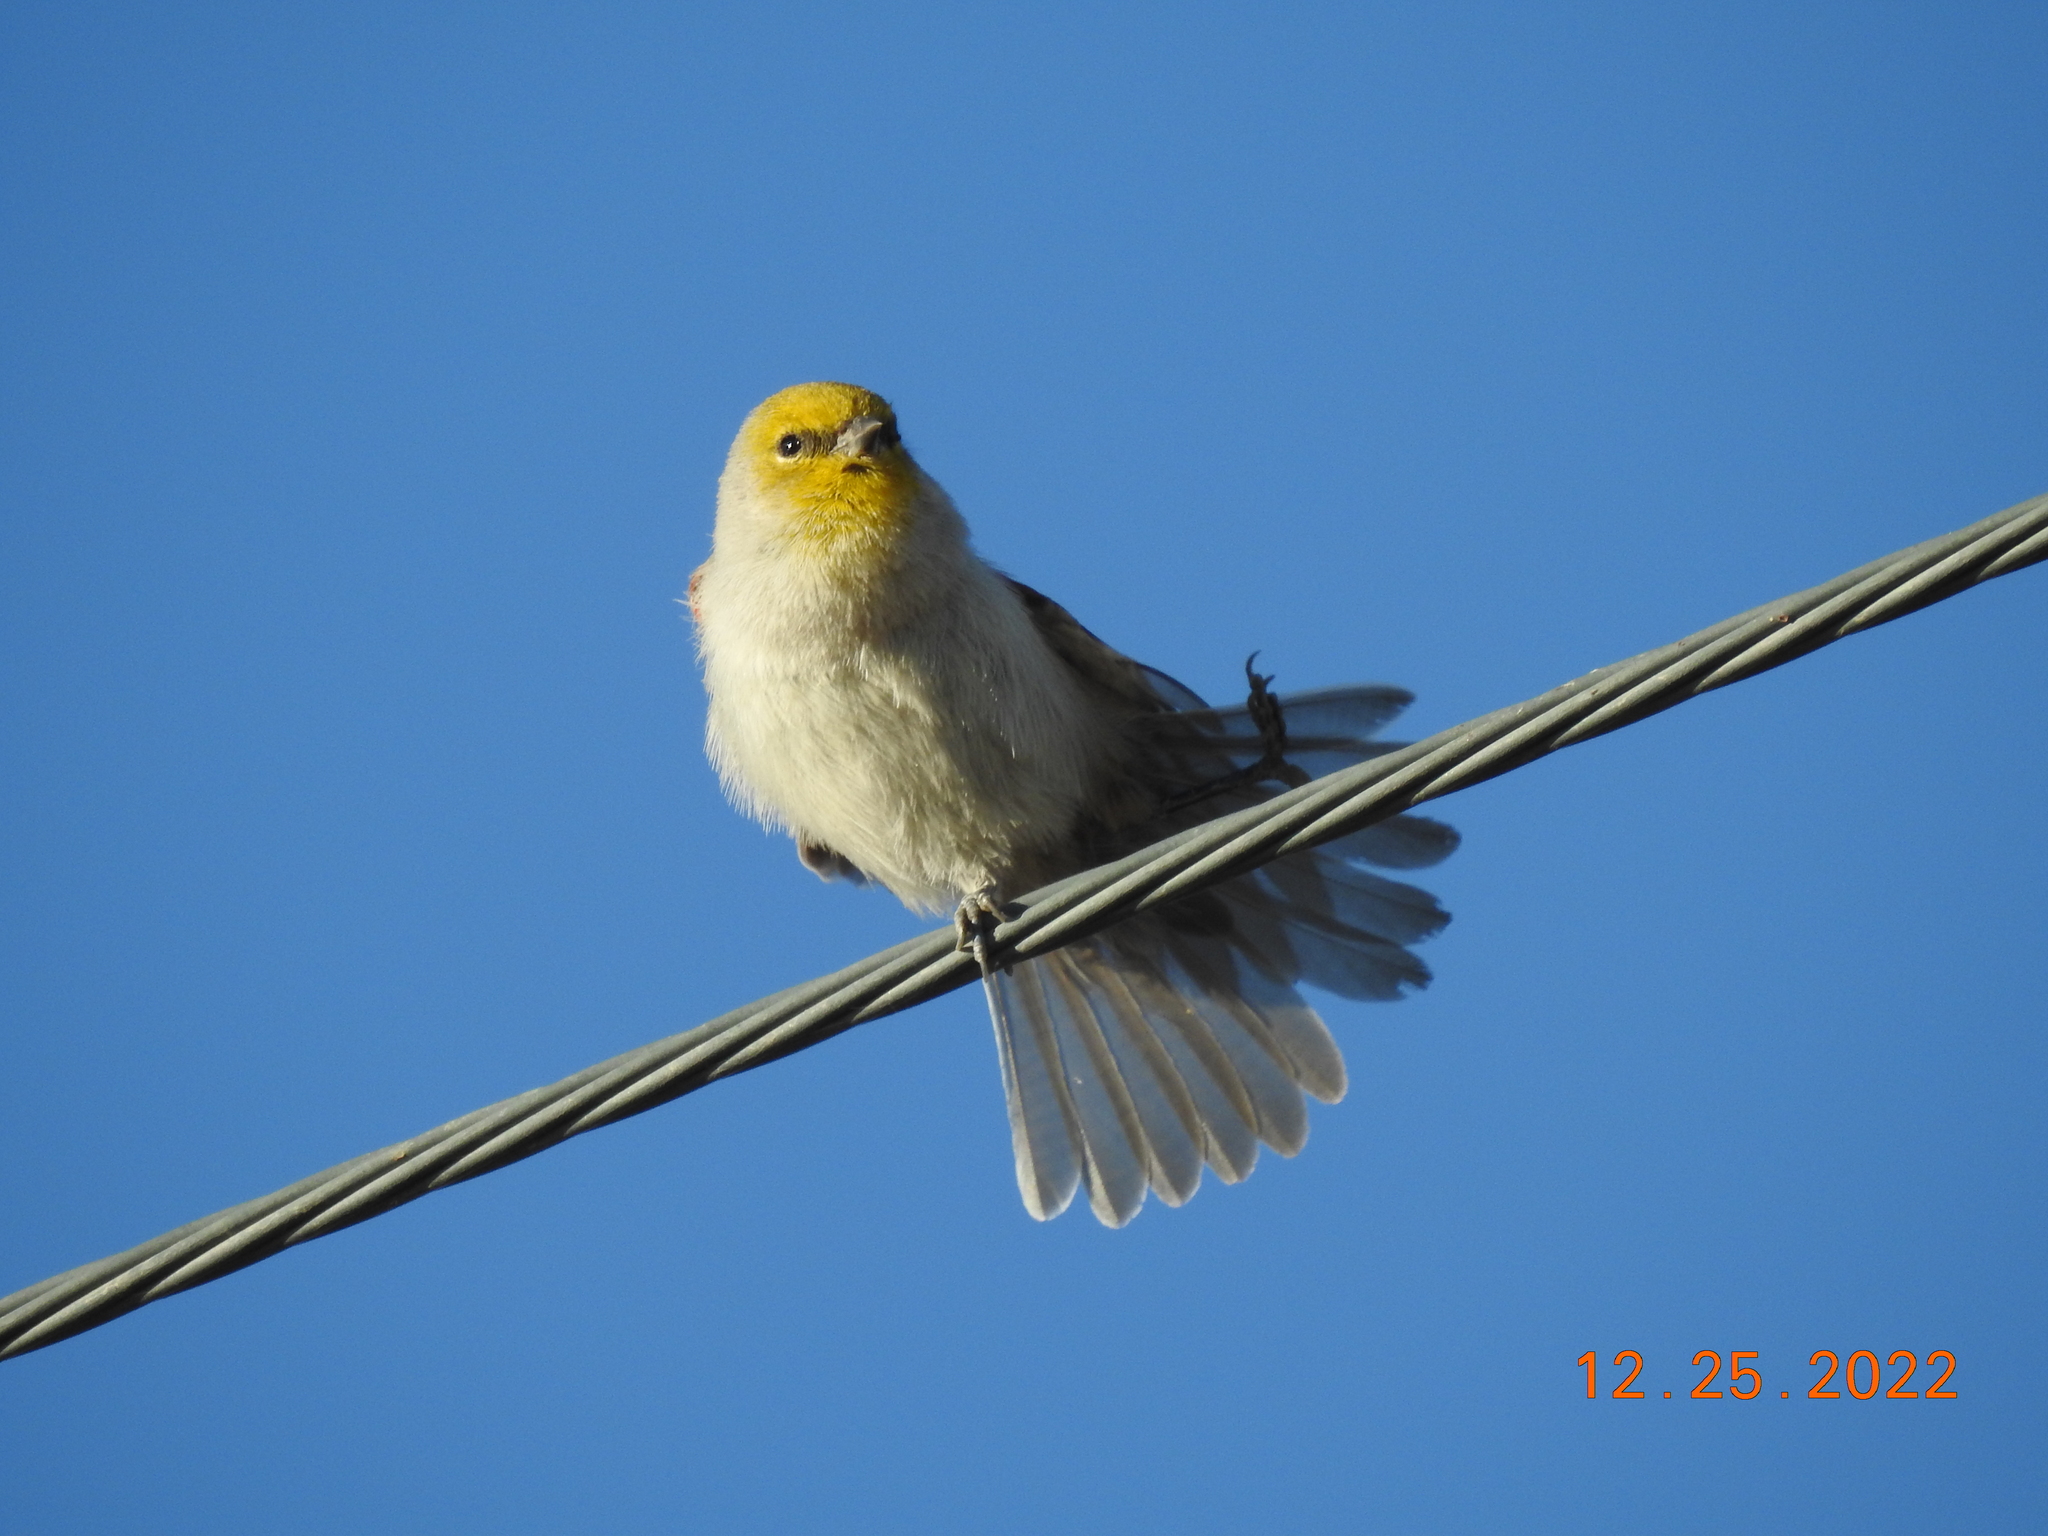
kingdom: Animalia
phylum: Chordata
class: Aves
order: Passeriformes
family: Remizidae
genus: Auriparus
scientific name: Auriparus flaviceps
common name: Verdin
